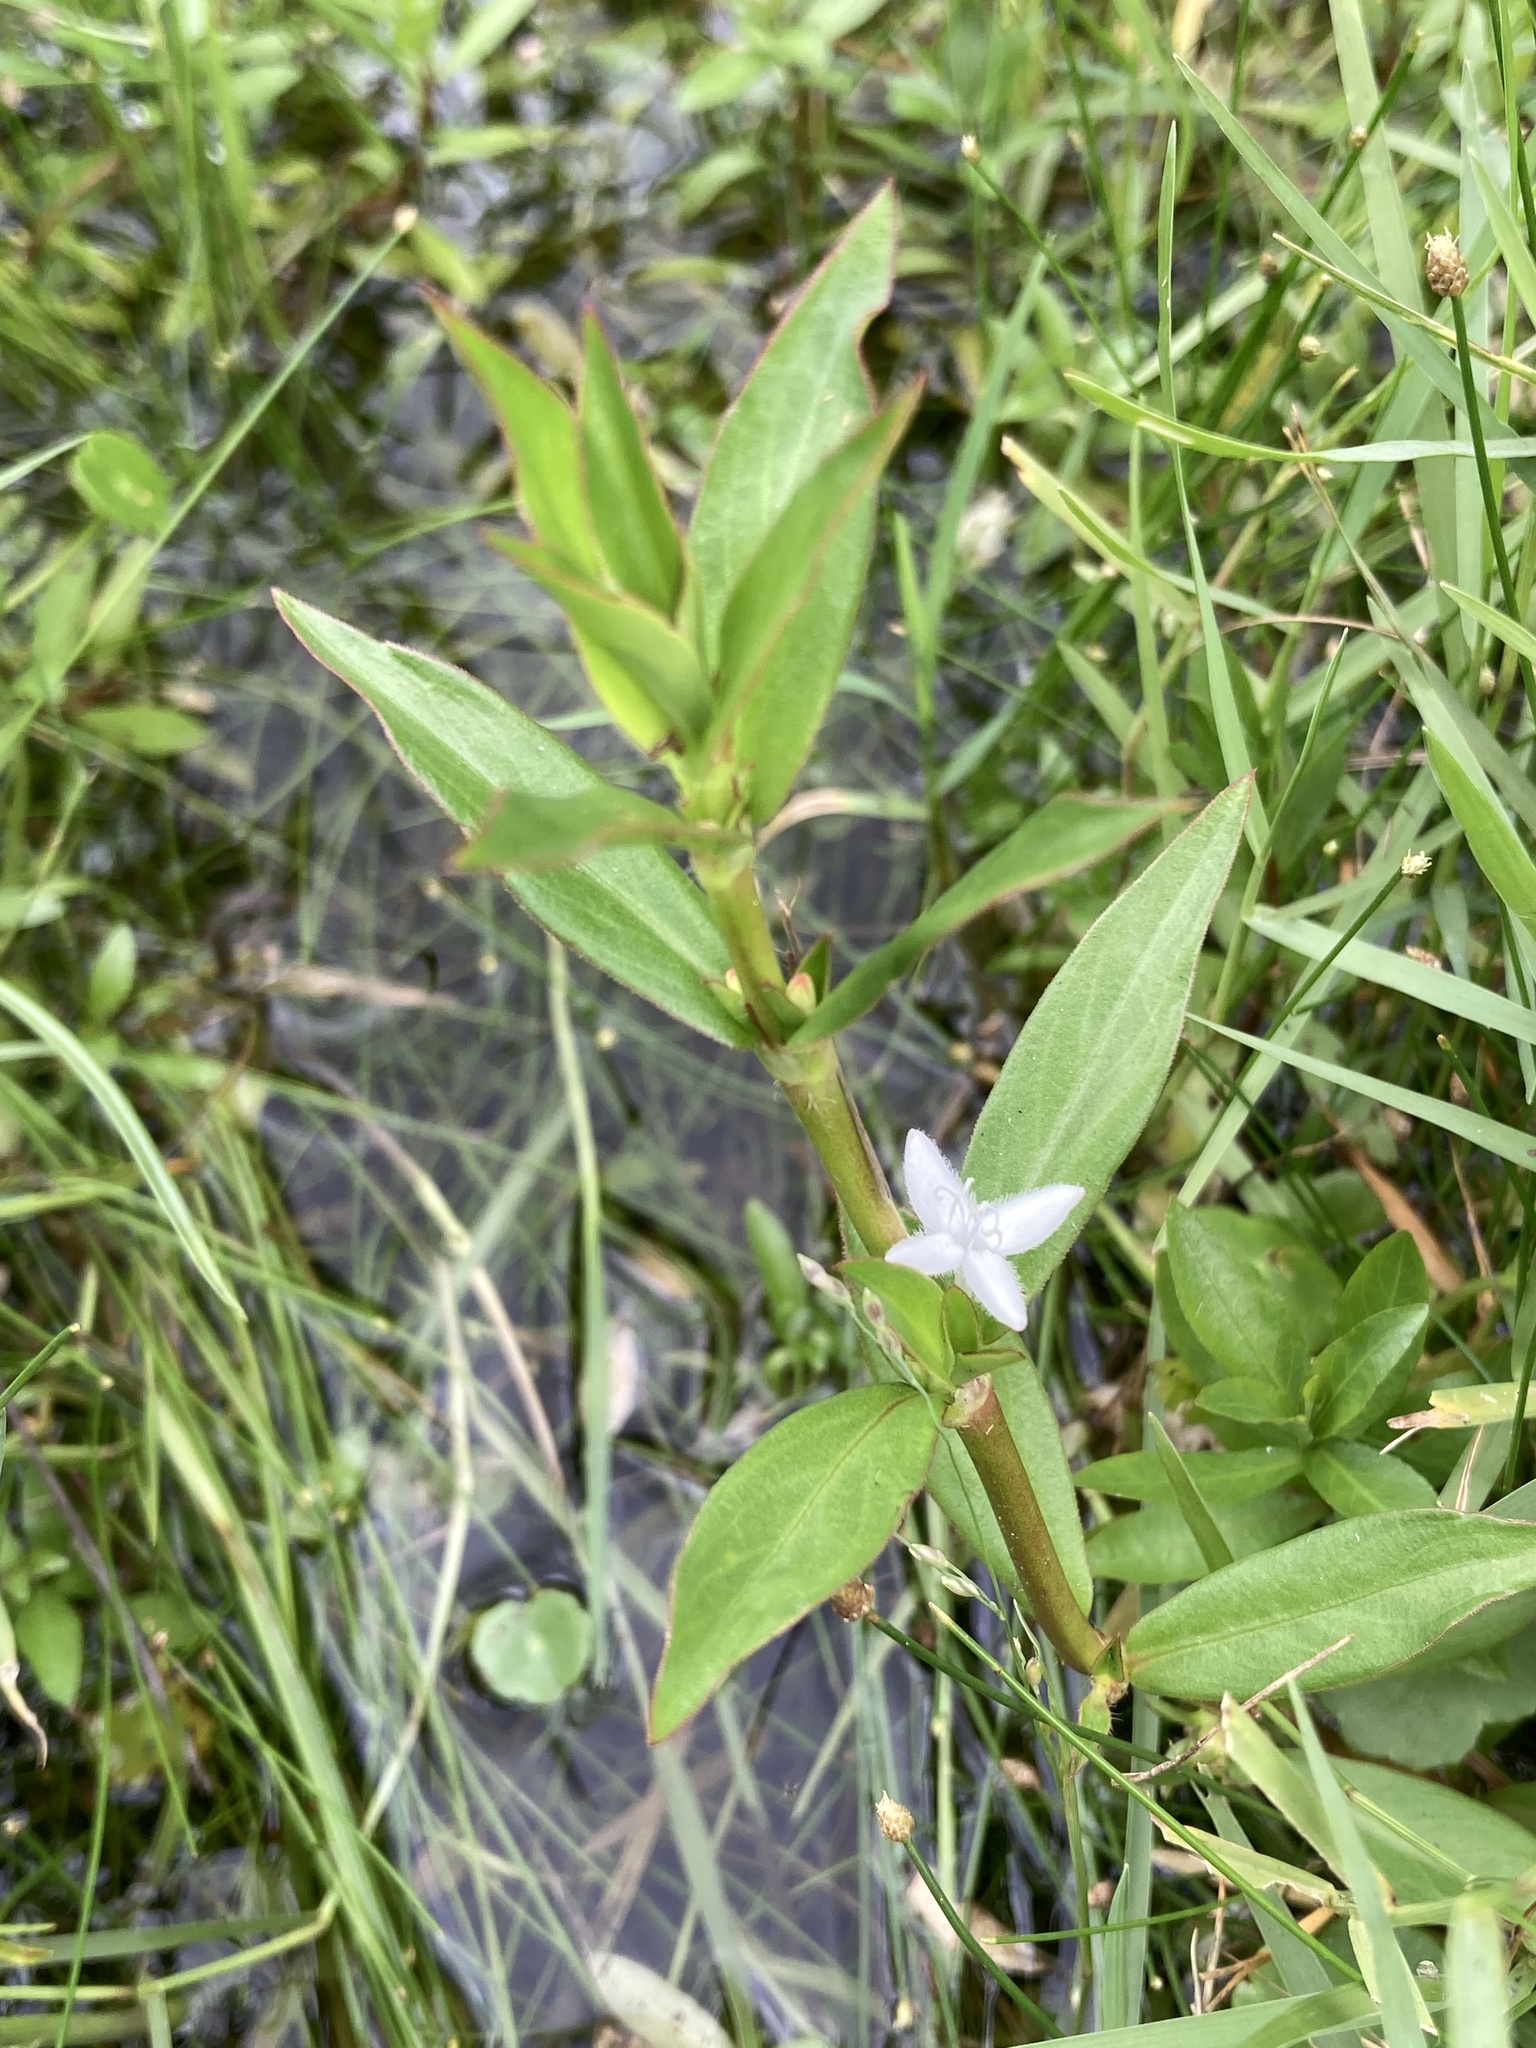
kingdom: Plantae
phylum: Tracheophyta
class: Magnoliopsida
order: Gentianales
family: Rubiaceae
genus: Diodia
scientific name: Diodia virginiana
